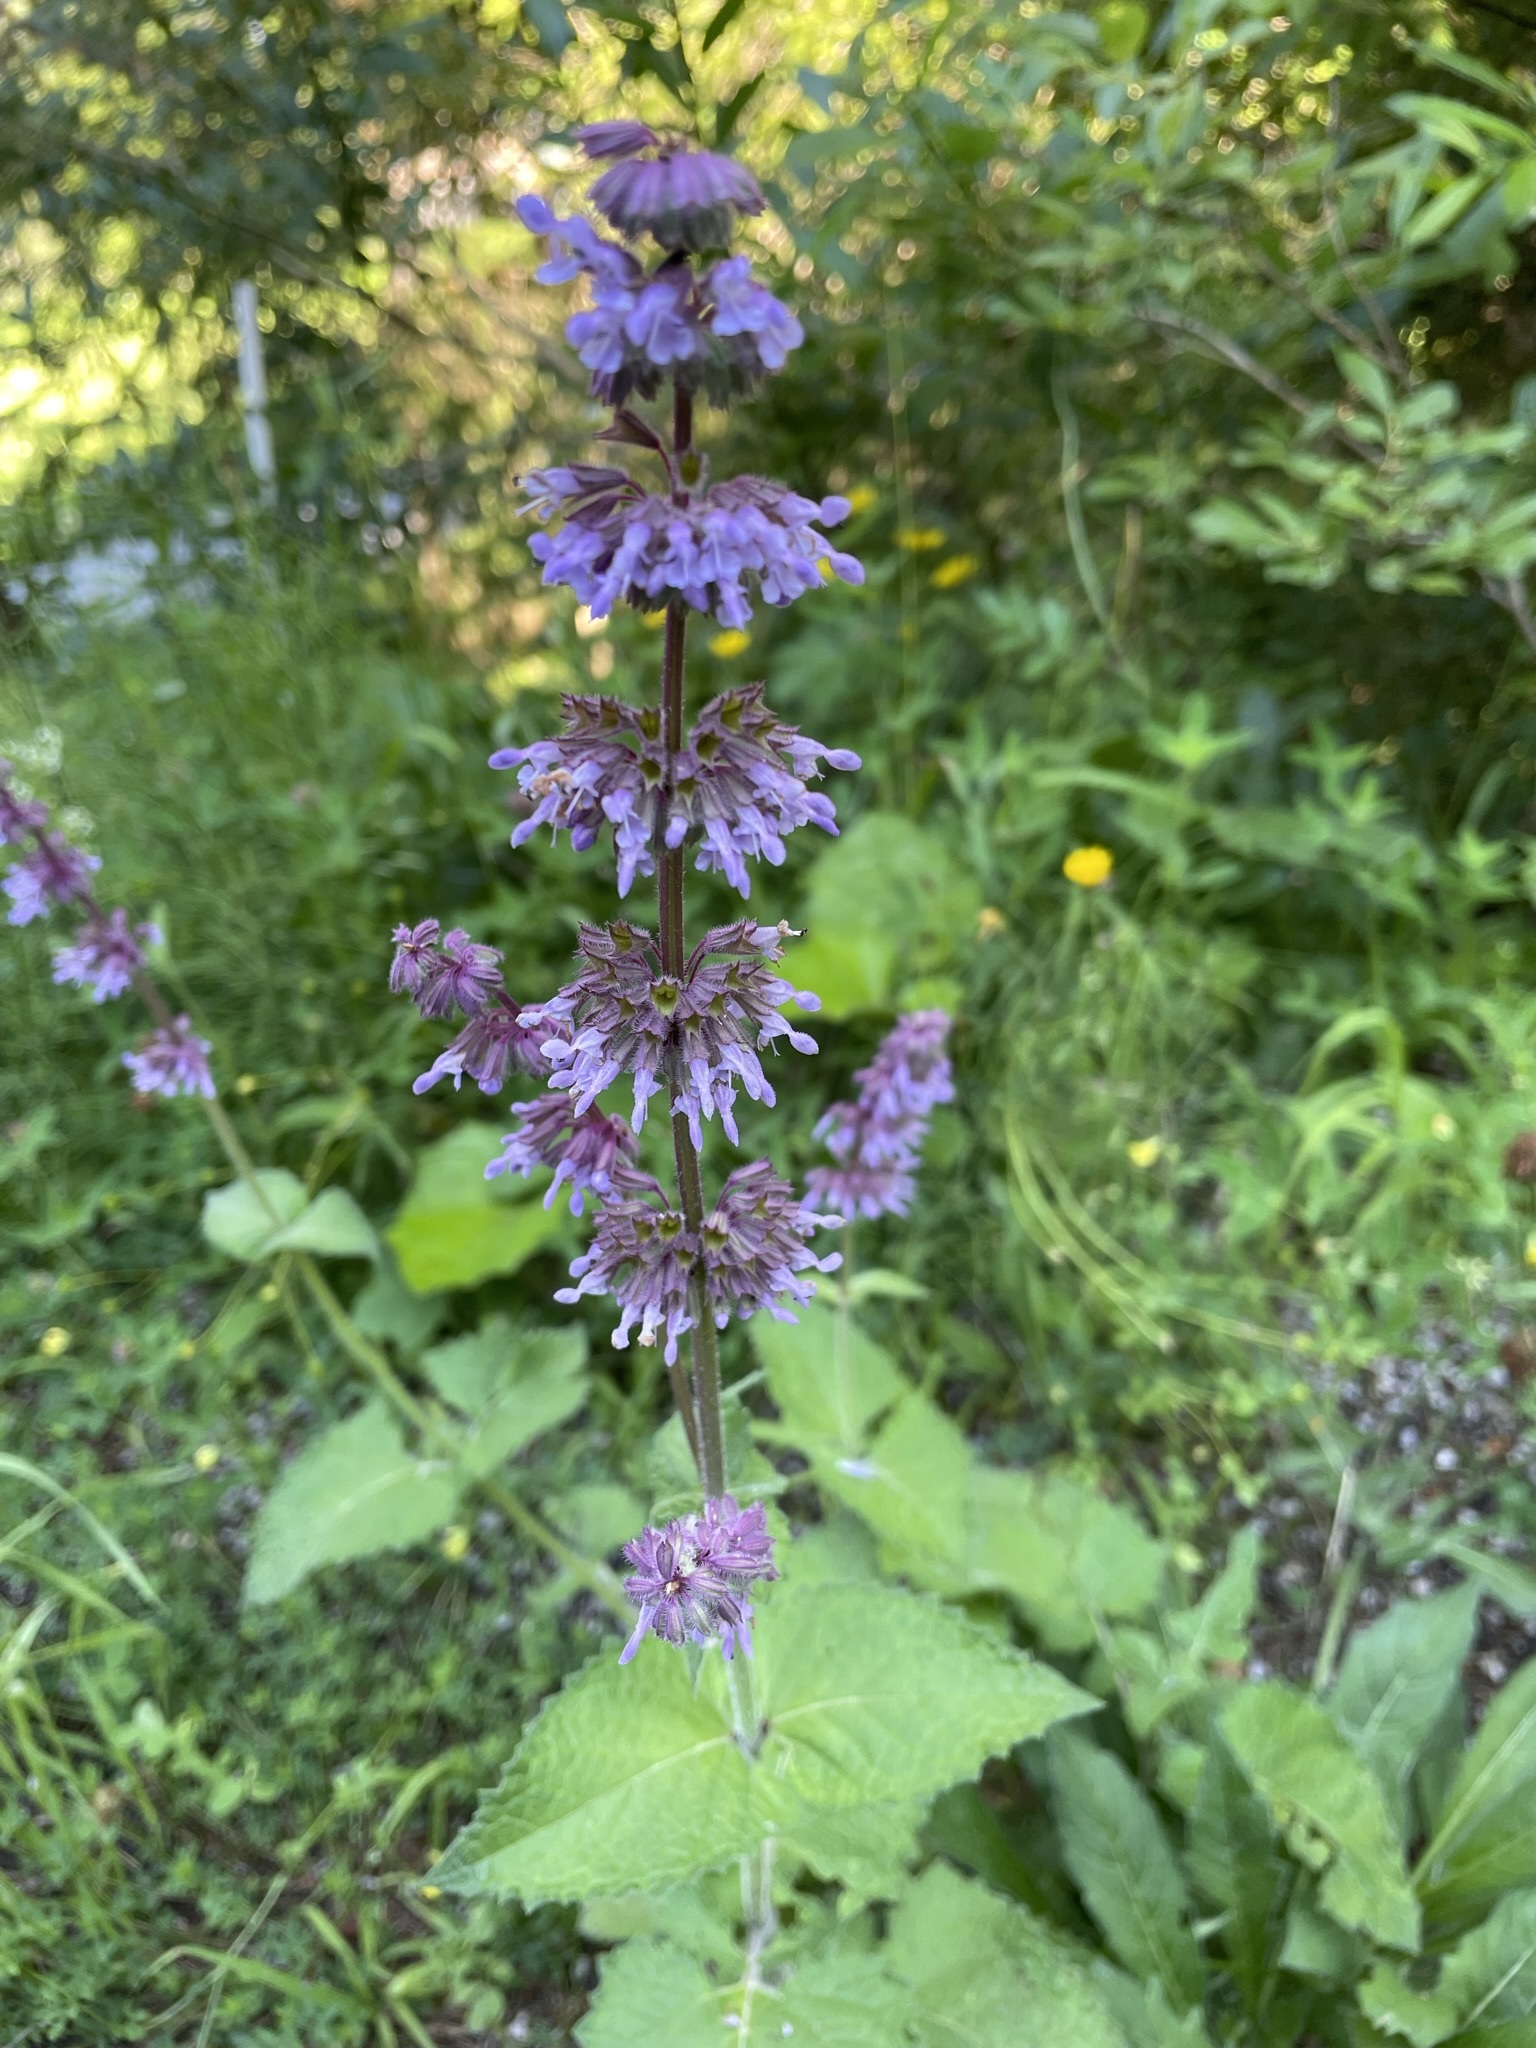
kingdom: Plantae
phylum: Tracheophyta
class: Magnoliopsida
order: Lamiales
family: Lamiaceae
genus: Salvia
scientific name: Salvia verticillata
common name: Whorled clary
